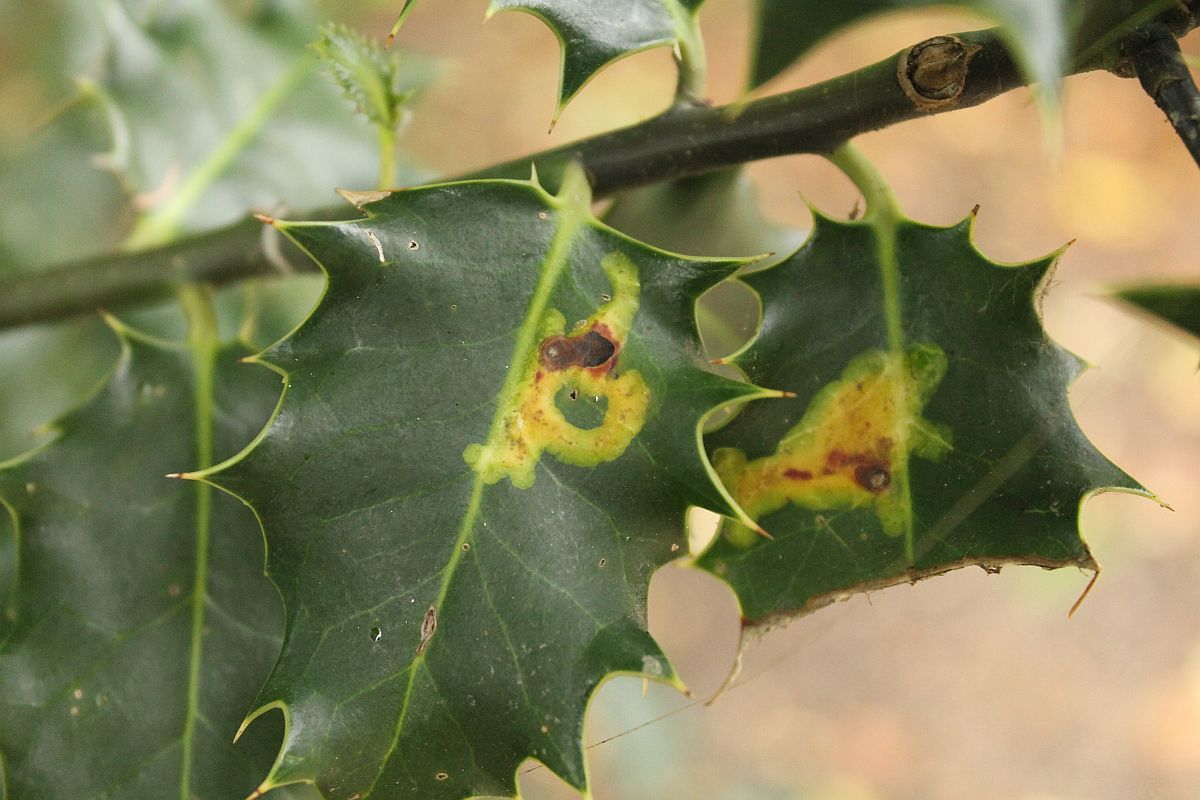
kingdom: Animalia
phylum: Arthropoda
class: Insecta
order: Diptera
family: Agromyzidae
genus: Phytomyza
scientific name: Phytomyza ilicis
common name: Holly leafminer
